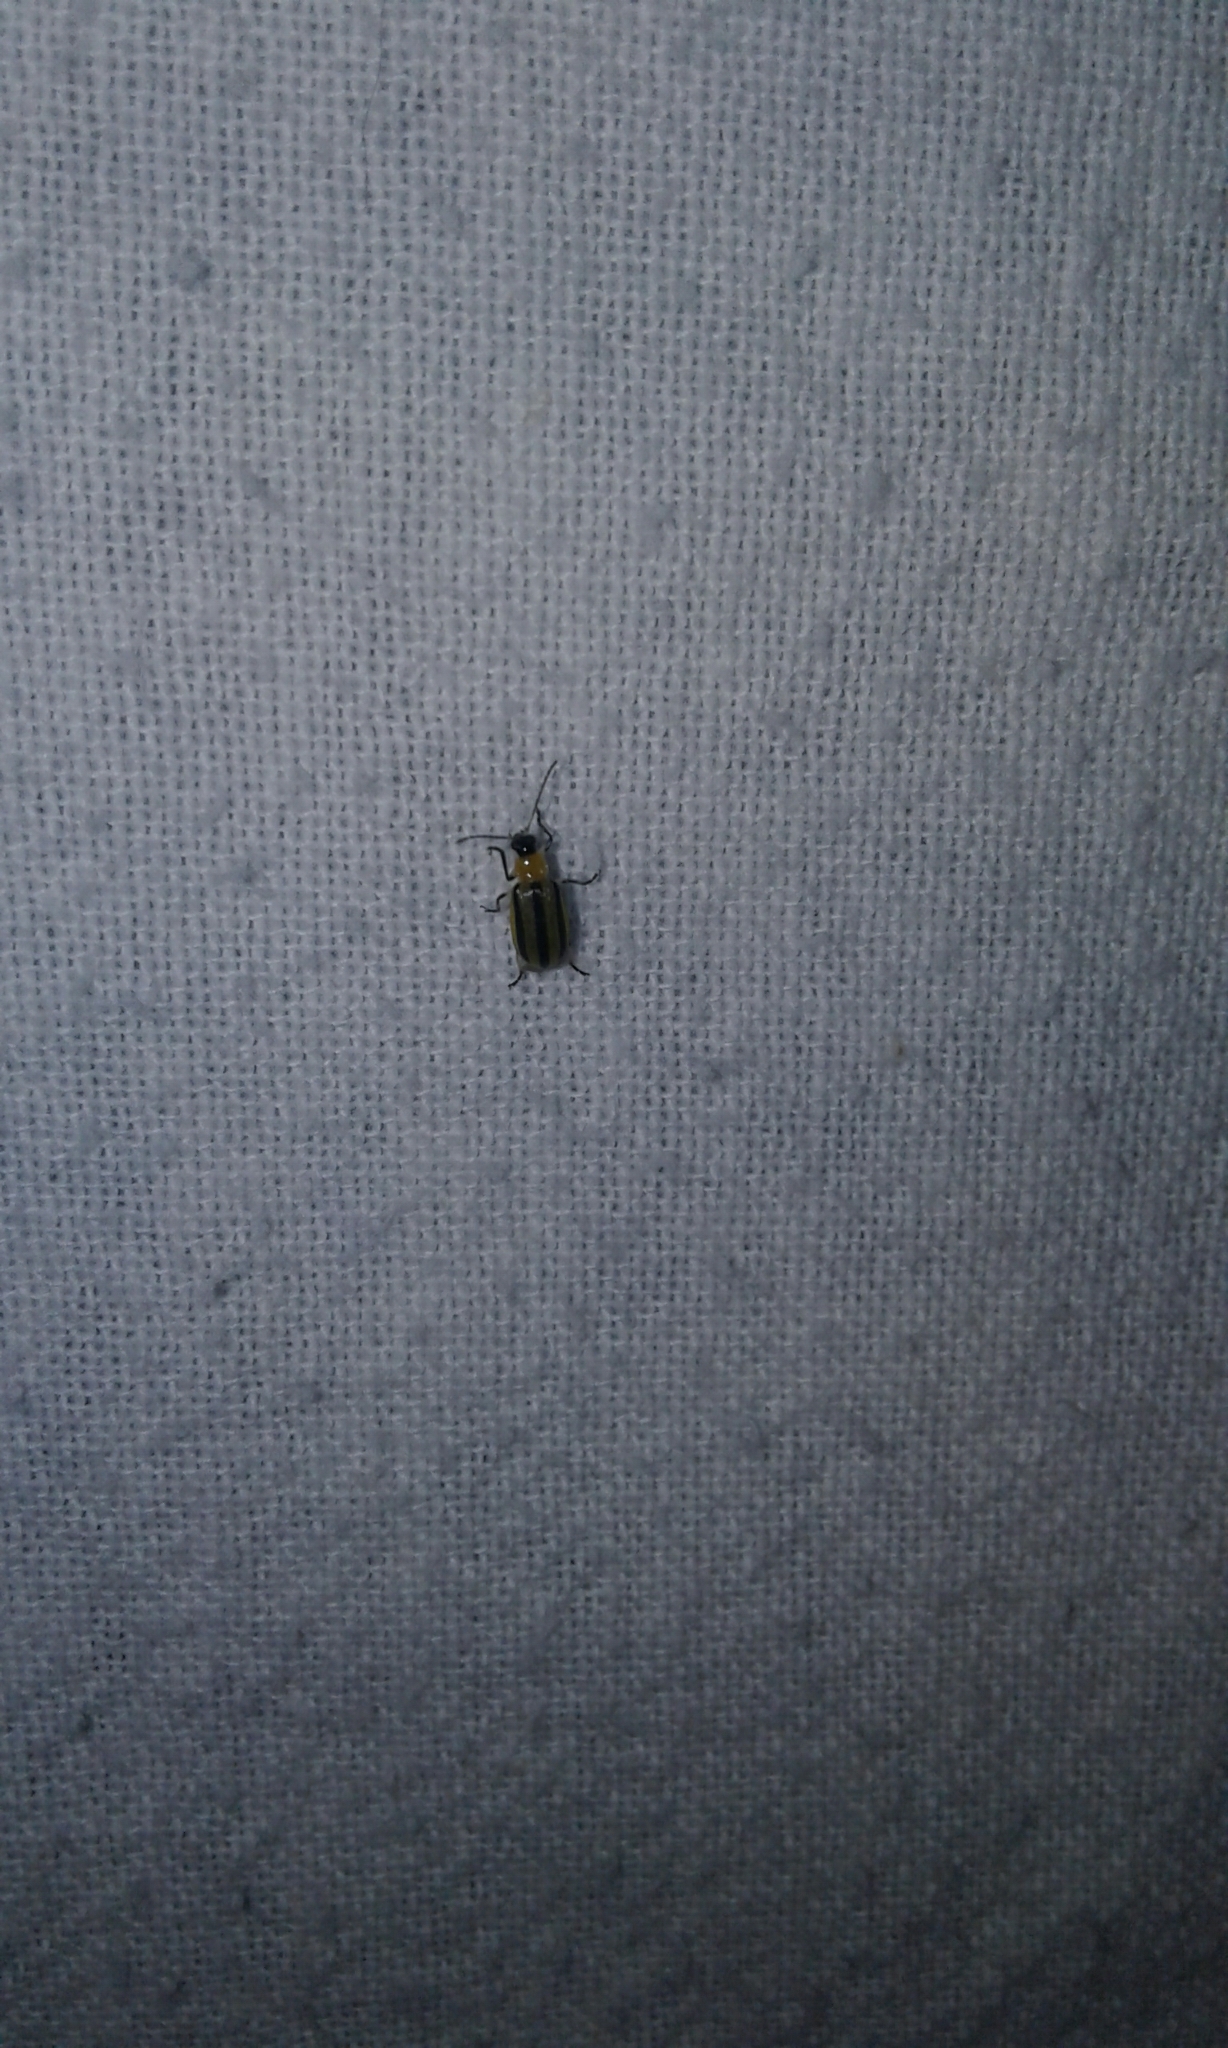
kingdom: Animalia
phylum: Arthropoda
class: Insecta
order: Coleoptera
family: Chrysomelidae
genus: Acalymma
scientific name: Acalymma vittatum
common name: Striped cucumber beetle
